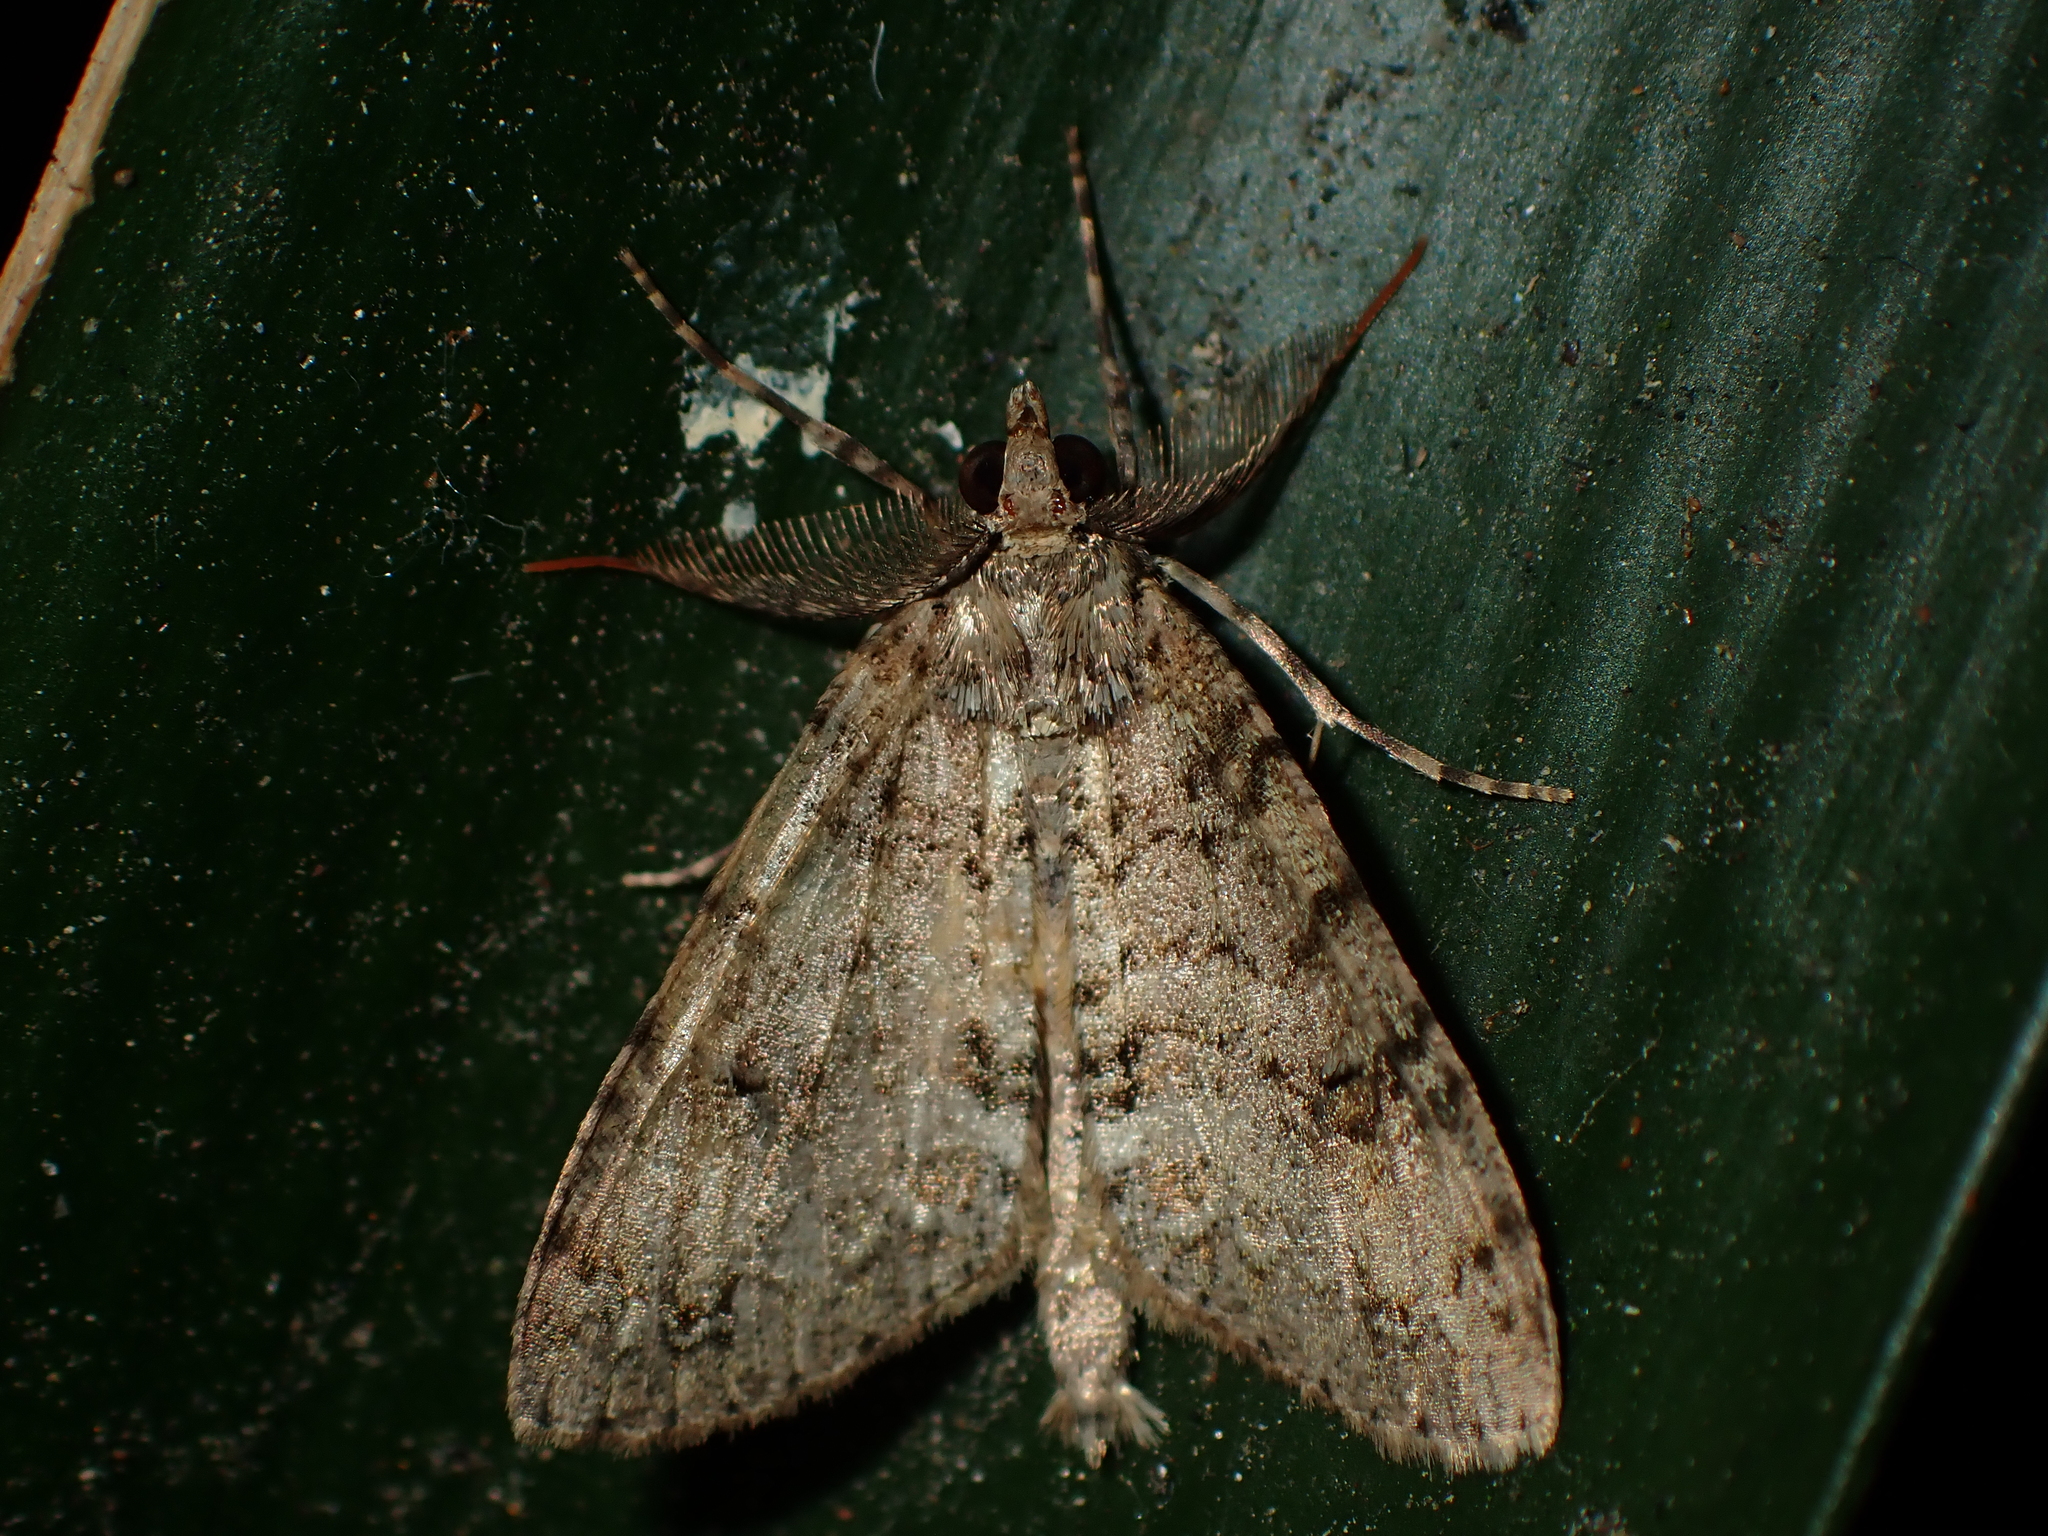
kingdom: Animalia
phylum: Arthropoda
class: Insecta
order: Lepidoptera
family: Geometridae
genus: Pseudocoremia
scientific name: Pseudocoremia suavis
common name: Common forest looper
